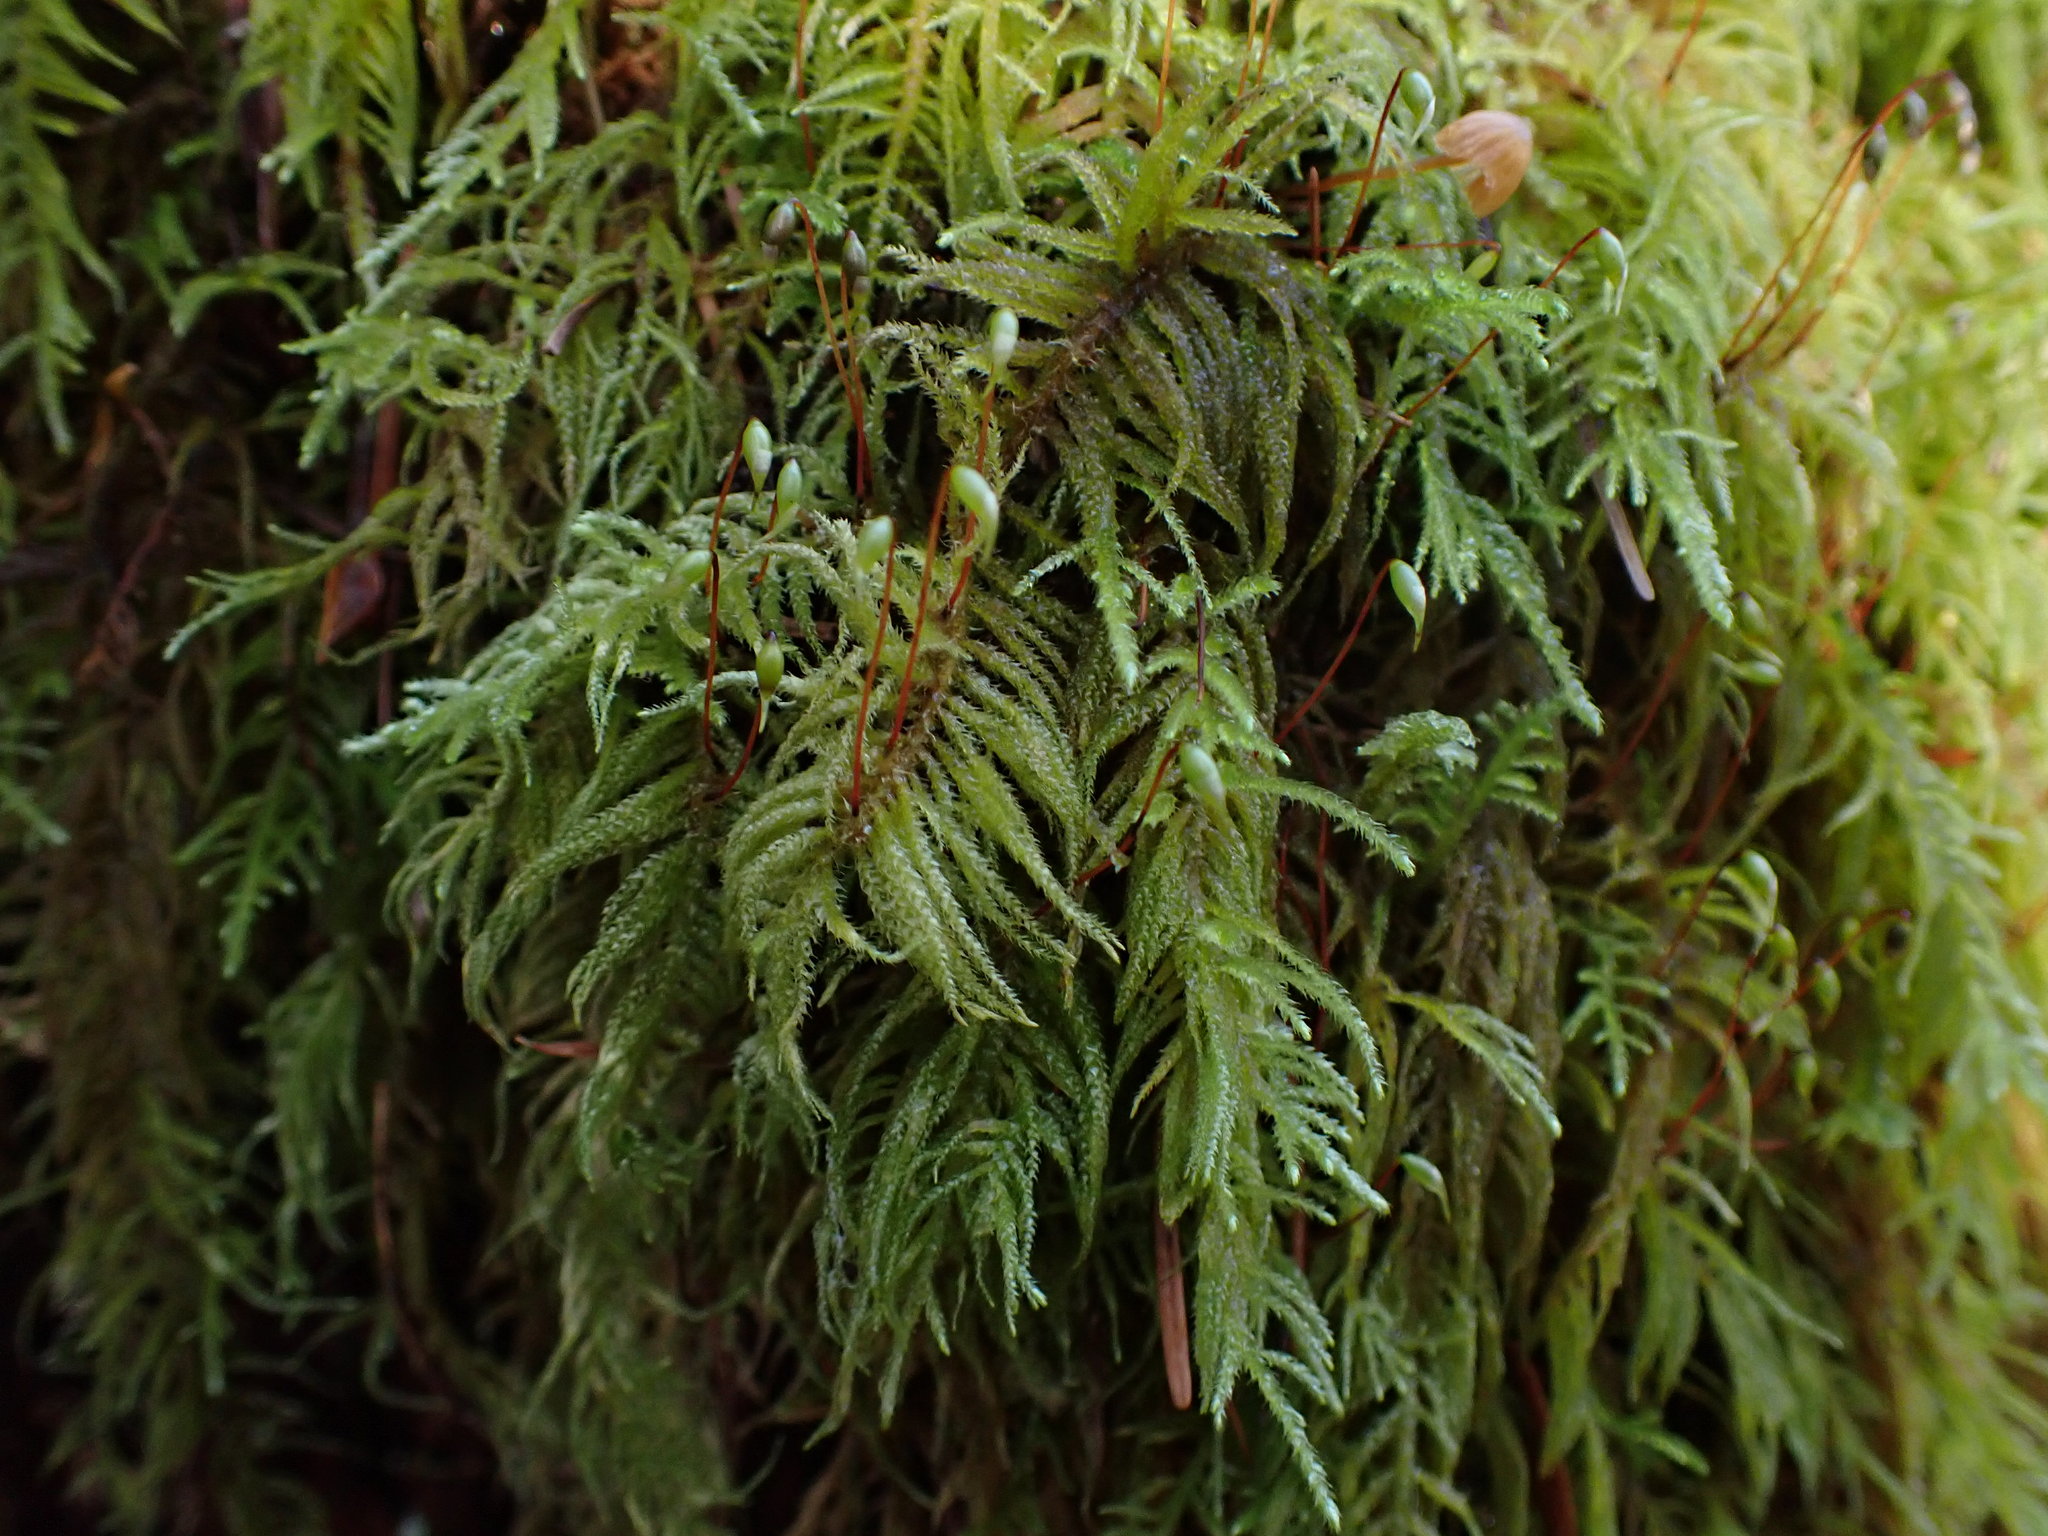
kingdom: Plantae
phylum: Bryophyta
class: Bryopsida
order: Hypnales
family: Brachytheciaceae
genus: Kindbergia
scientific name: Kindbergia oregana
